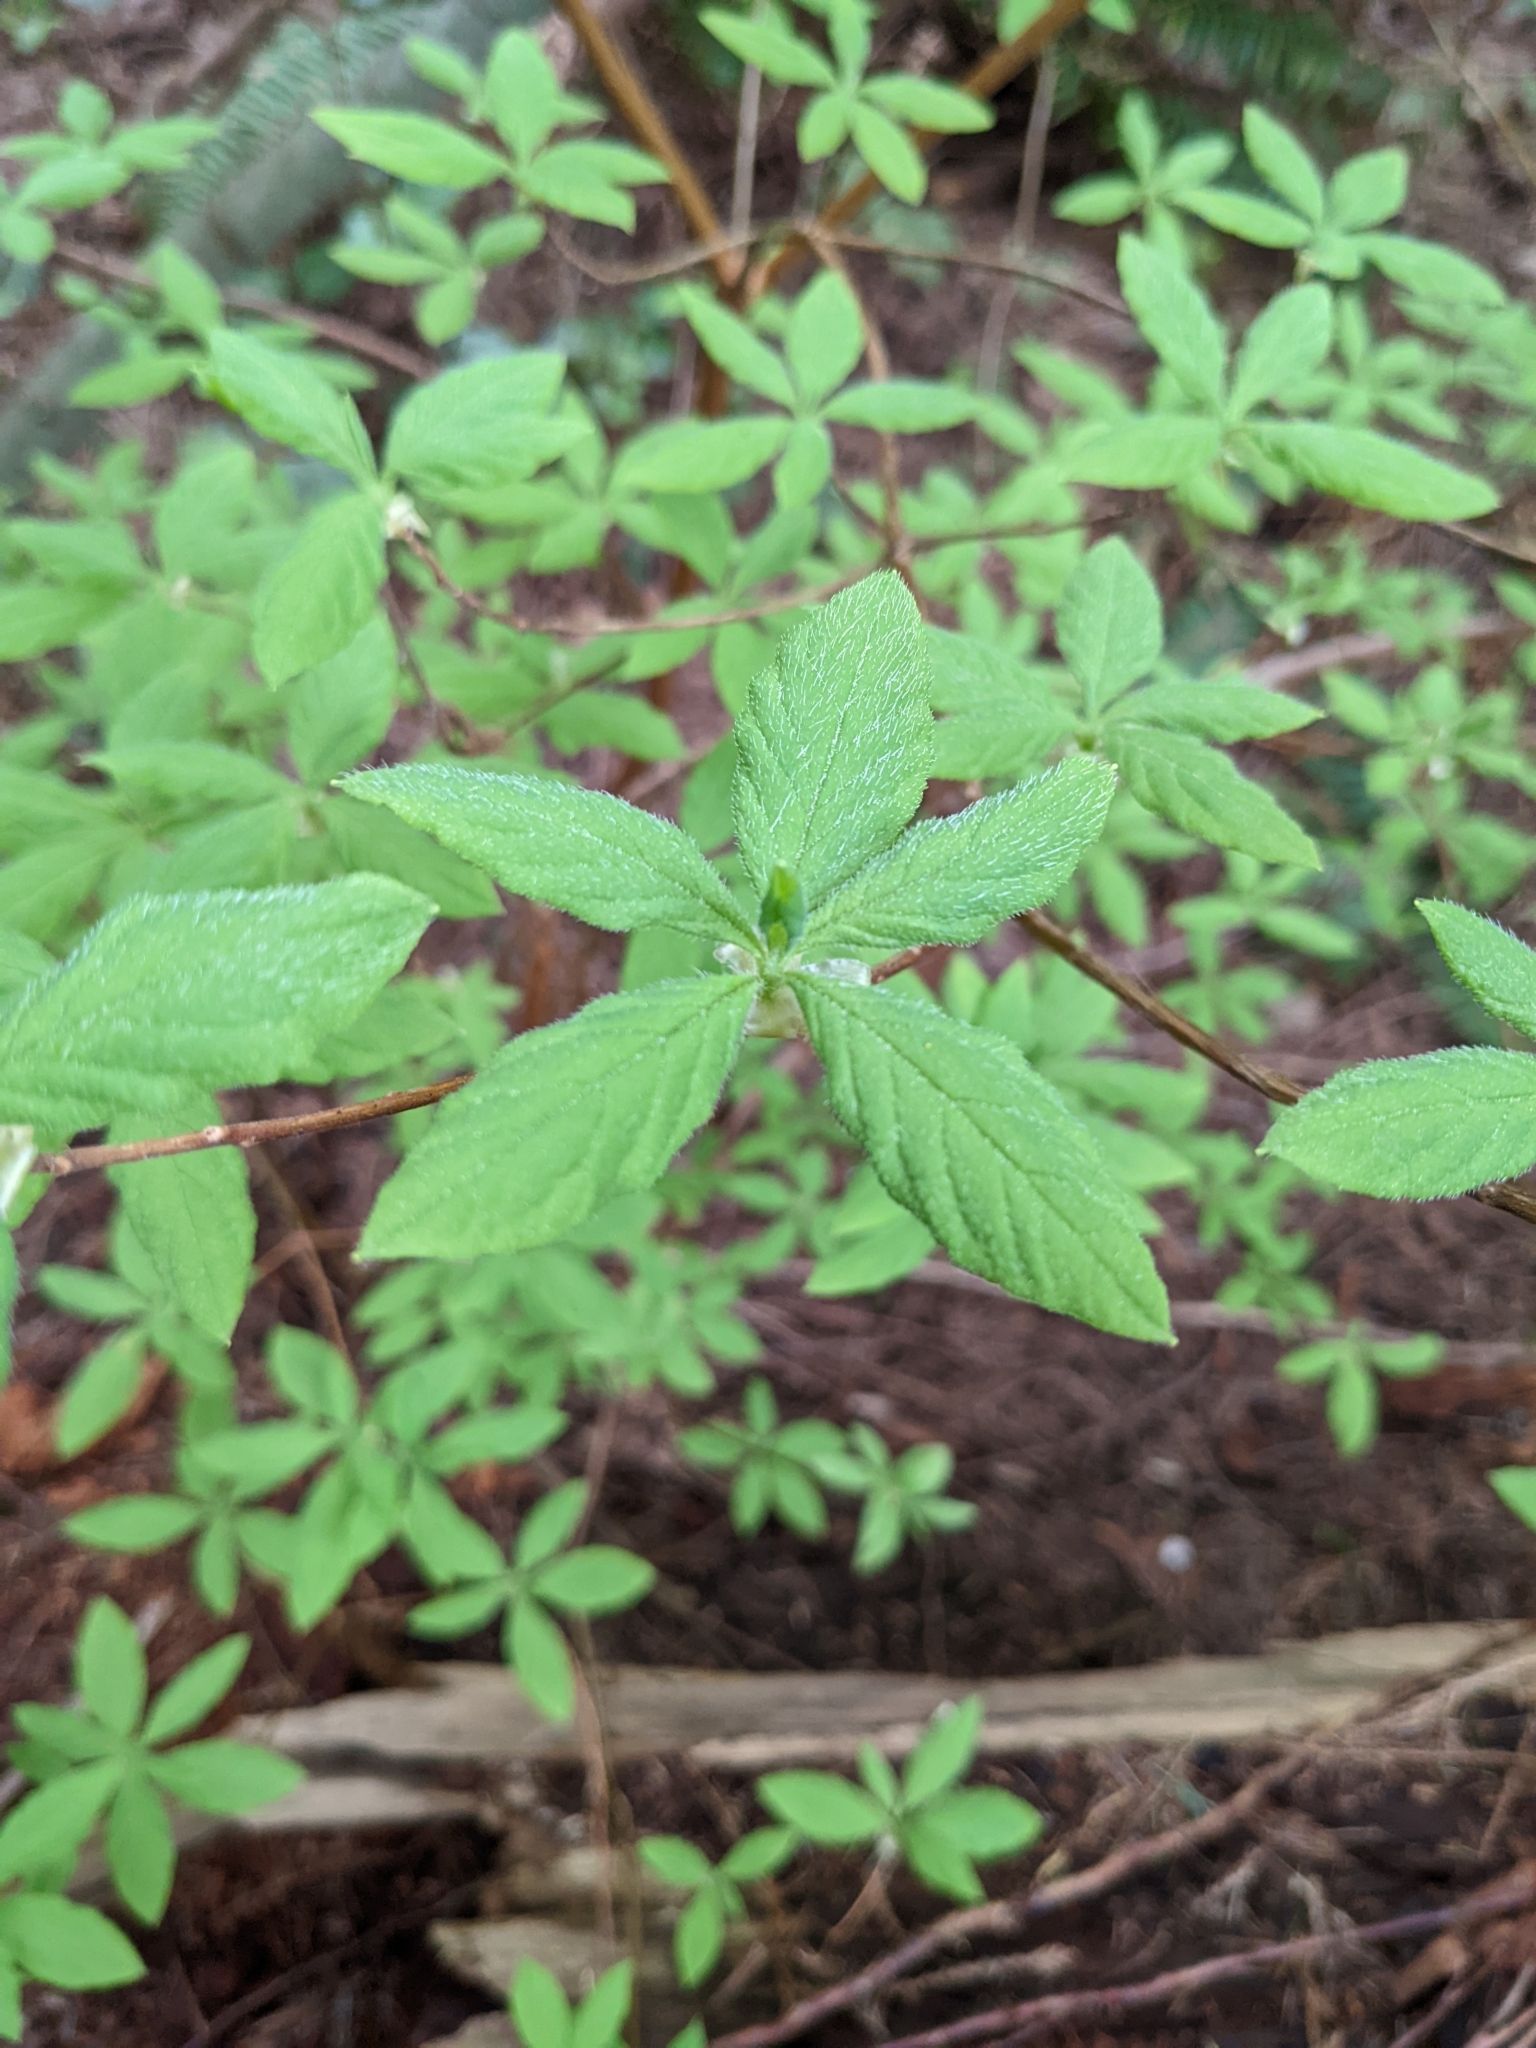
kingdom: Plantae
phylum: Tracheophyta
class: Magnoliopsida
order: Ericales
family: Ericaceae
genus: Rhododendron
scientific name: Rhododendron menziesii
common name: Pacific menziesia
